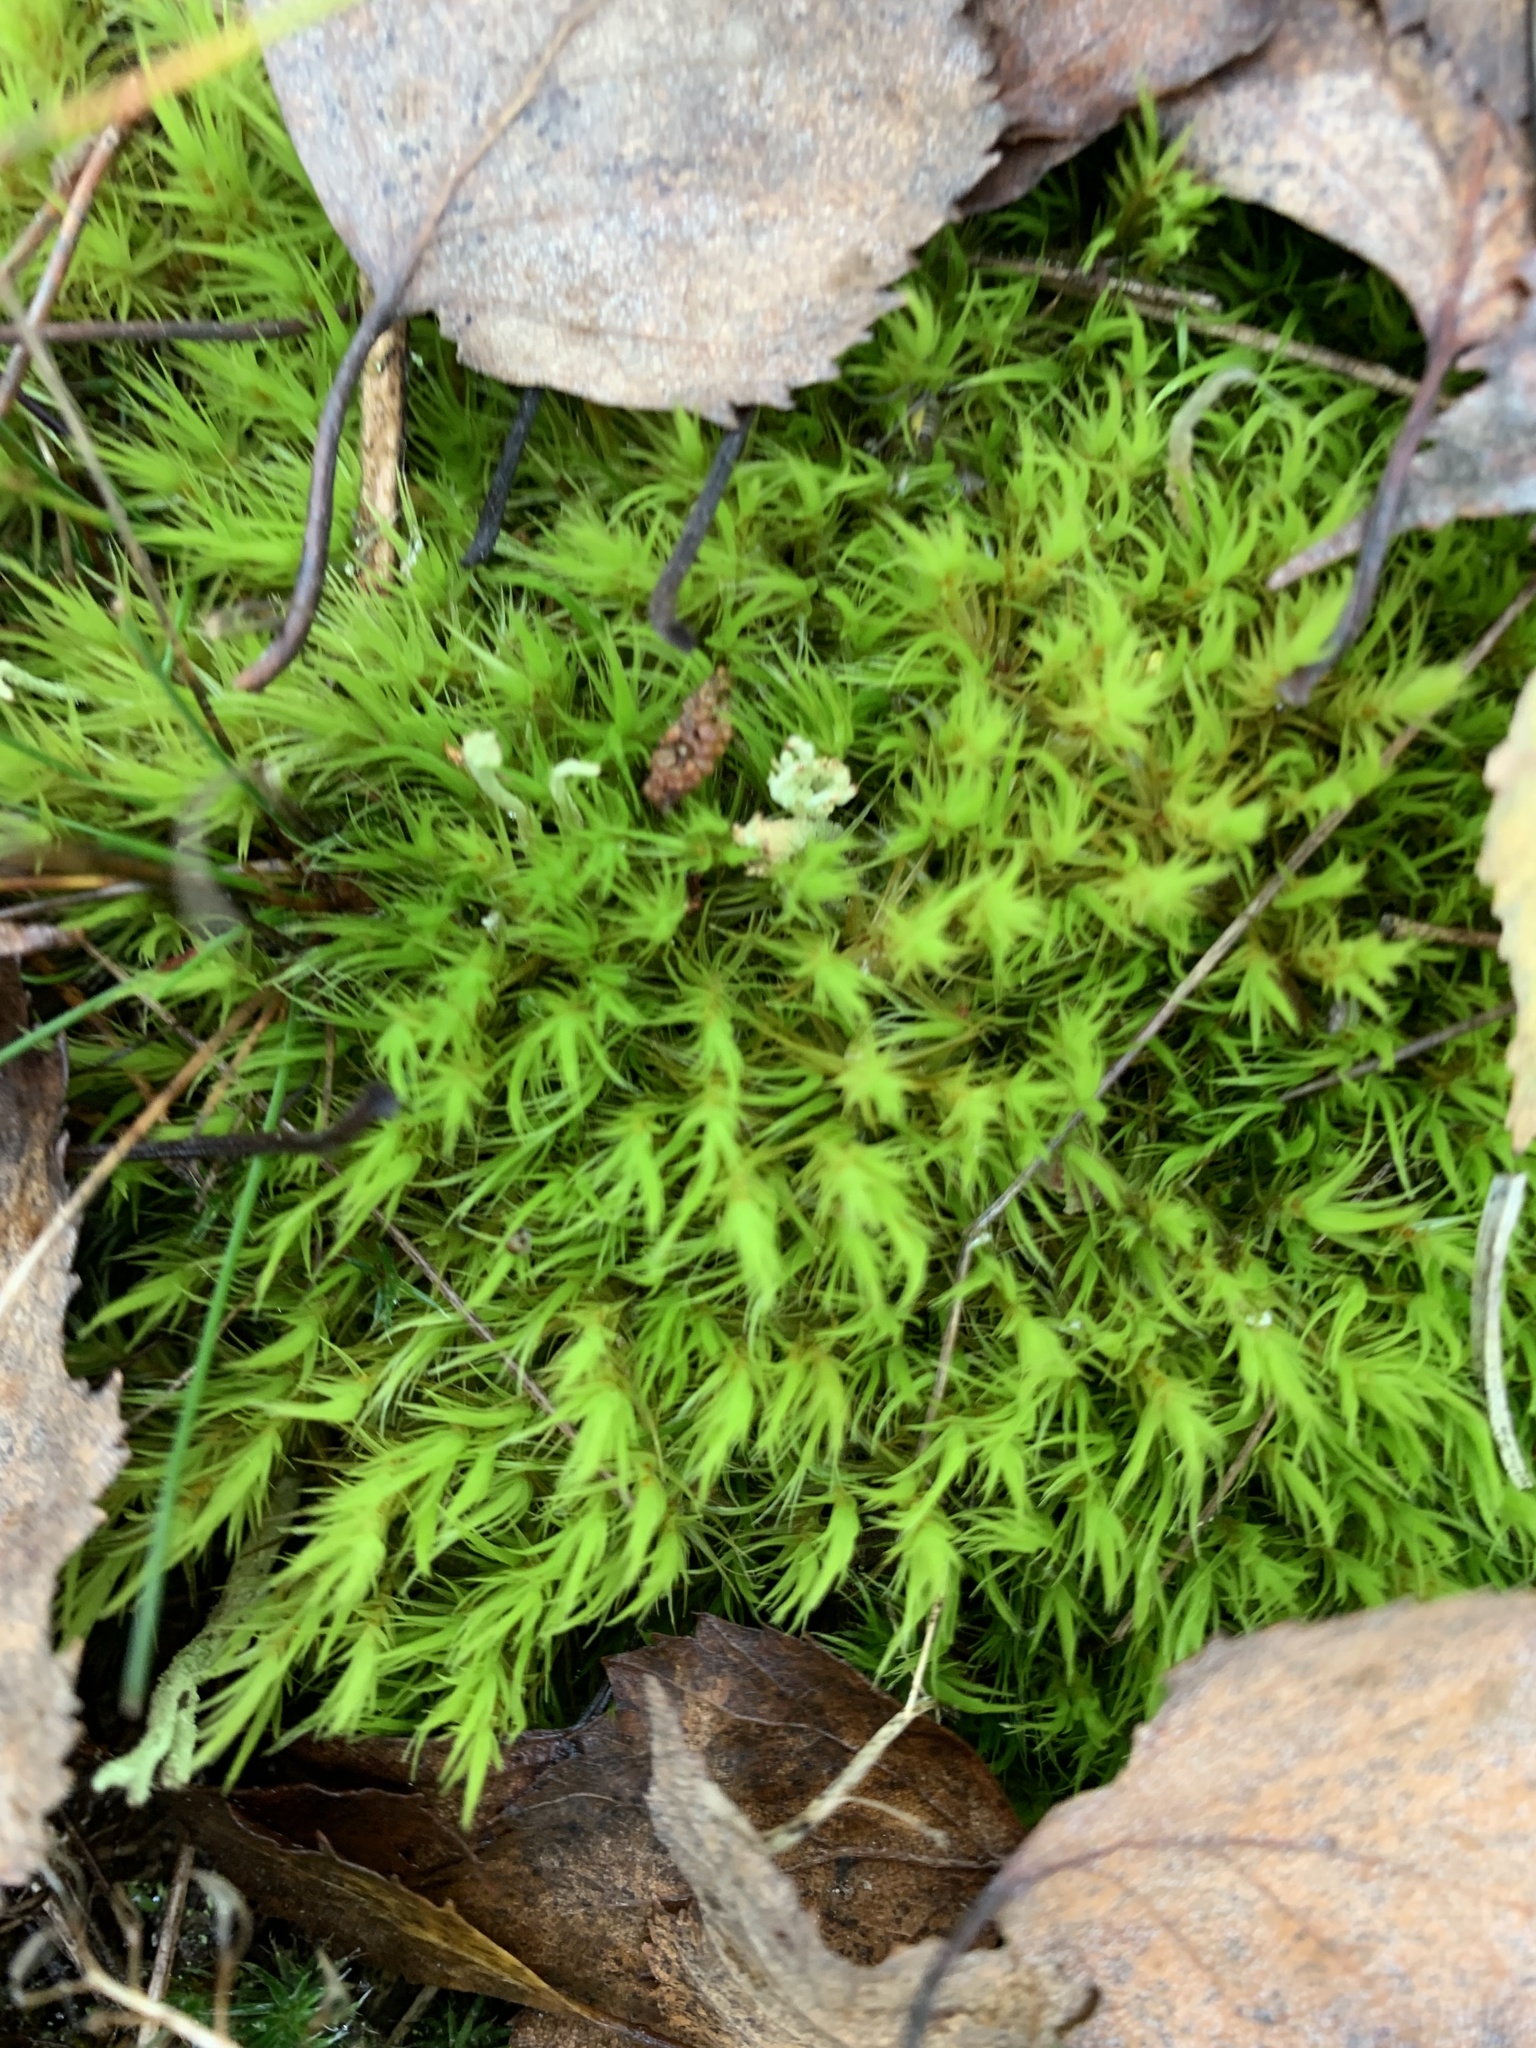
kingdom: Plantae
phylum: Bryophyta
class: Bryopsida
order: Dicranales
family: Dicranaceae
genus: Dicranum
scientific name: Dicranum scoparium
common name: Broom fork-moss
